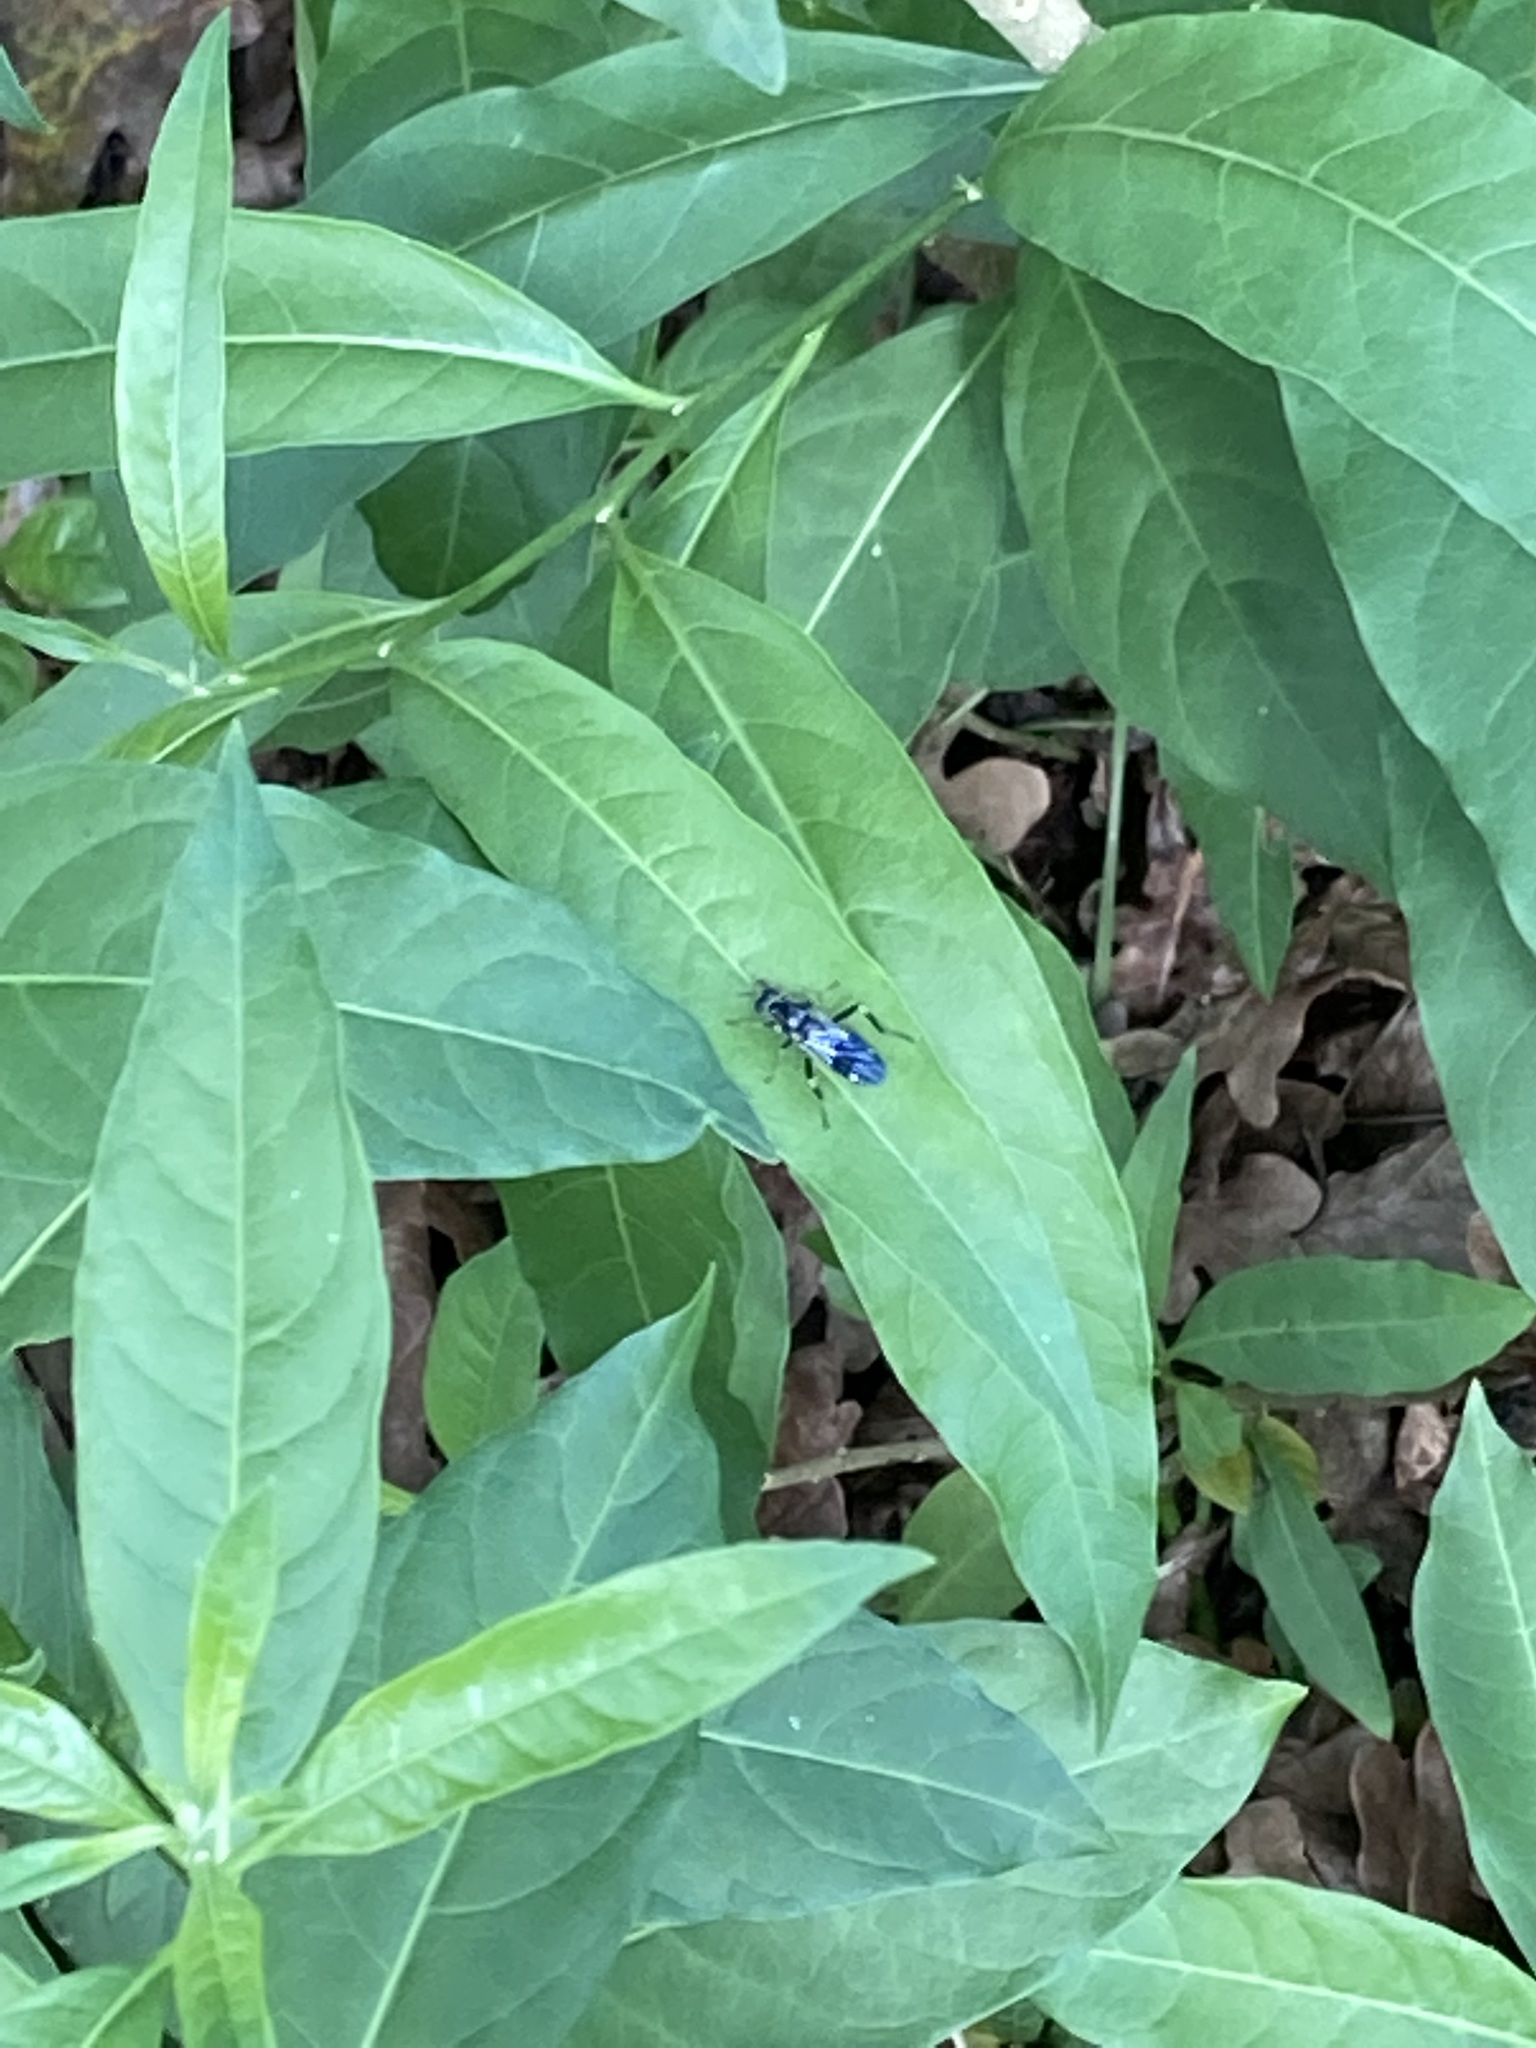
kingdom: Animalia
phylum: Arthropoda
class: Insecta
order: Diptera
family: Stratiomyidae
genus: Exaireta
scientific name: Exaireta spinigera
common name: Blue soldier fly
